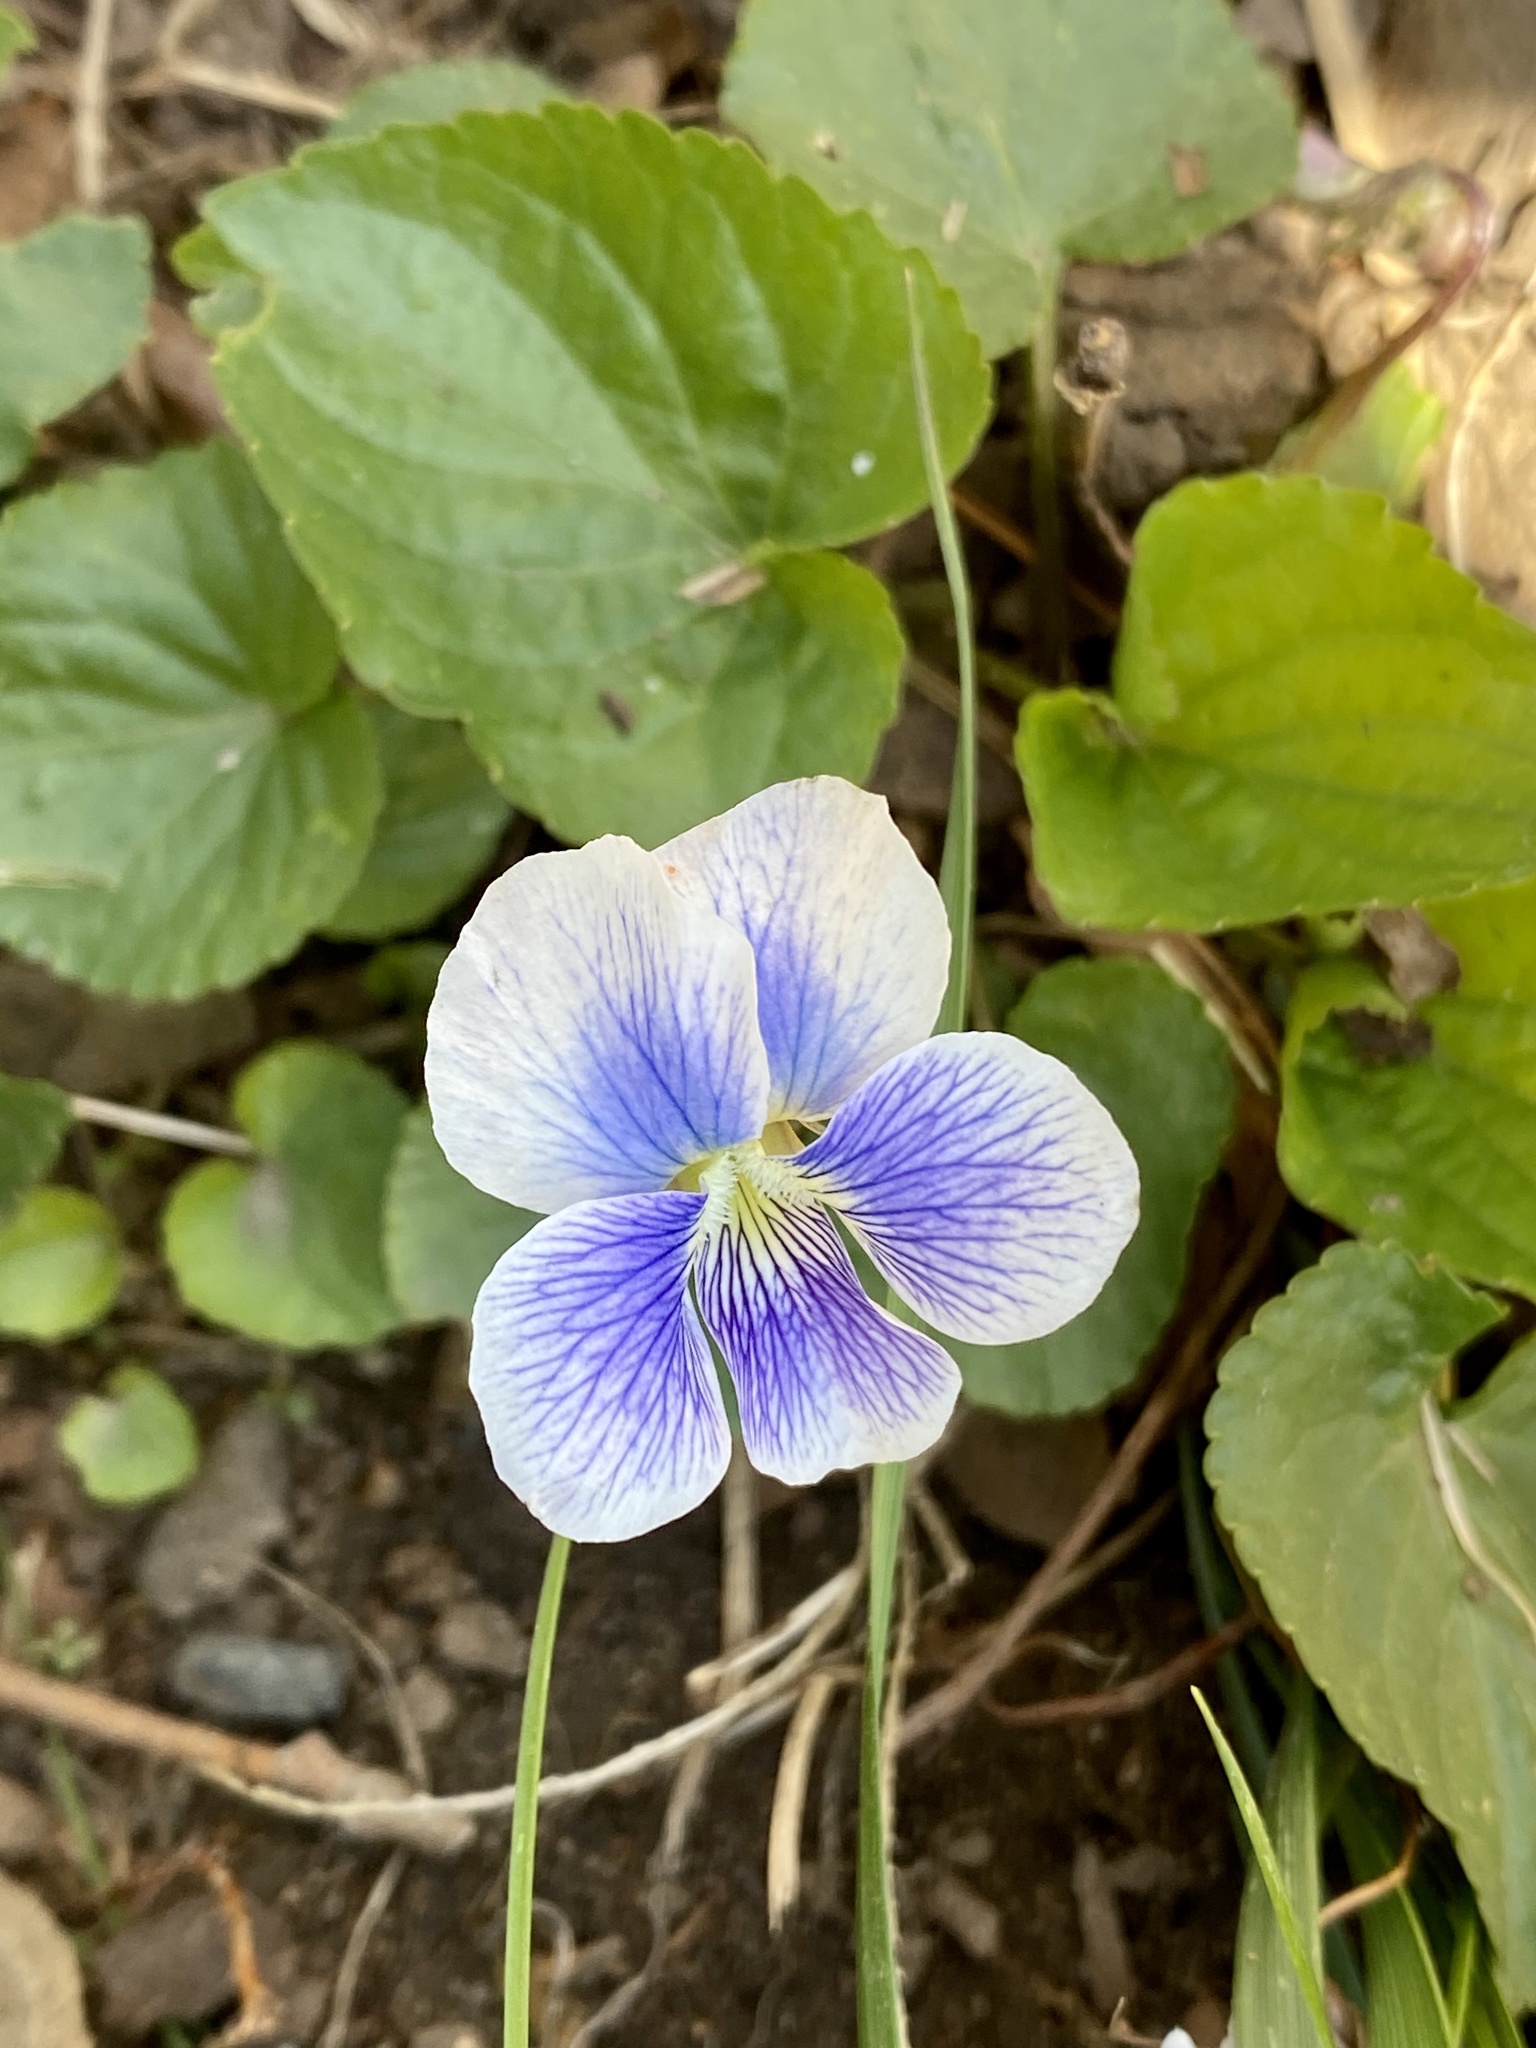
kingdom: Plantae
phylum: Tracheophyta
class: Magnoliopsida
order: Malpighiales
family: Violaceae
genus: Viola
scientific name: Viola sororia
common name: Dooryard violet
